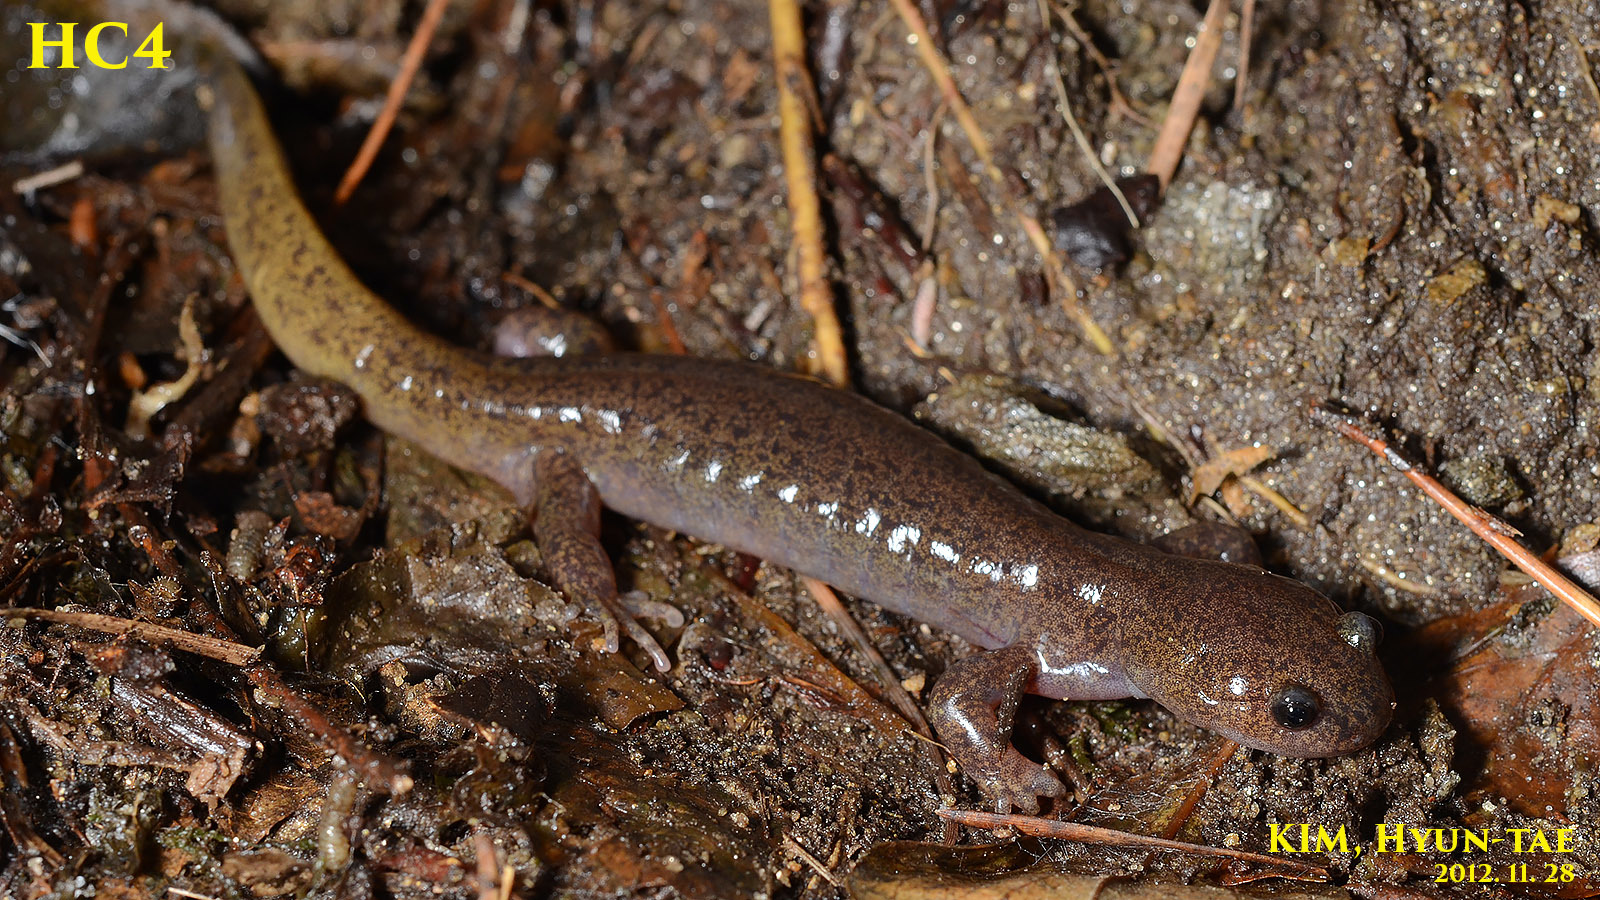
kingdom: Animalia
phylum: Chordata
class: Amphibia
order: Caudata
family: Hynobiidae
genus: Hynobius
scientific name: Hynobius perplicatus
